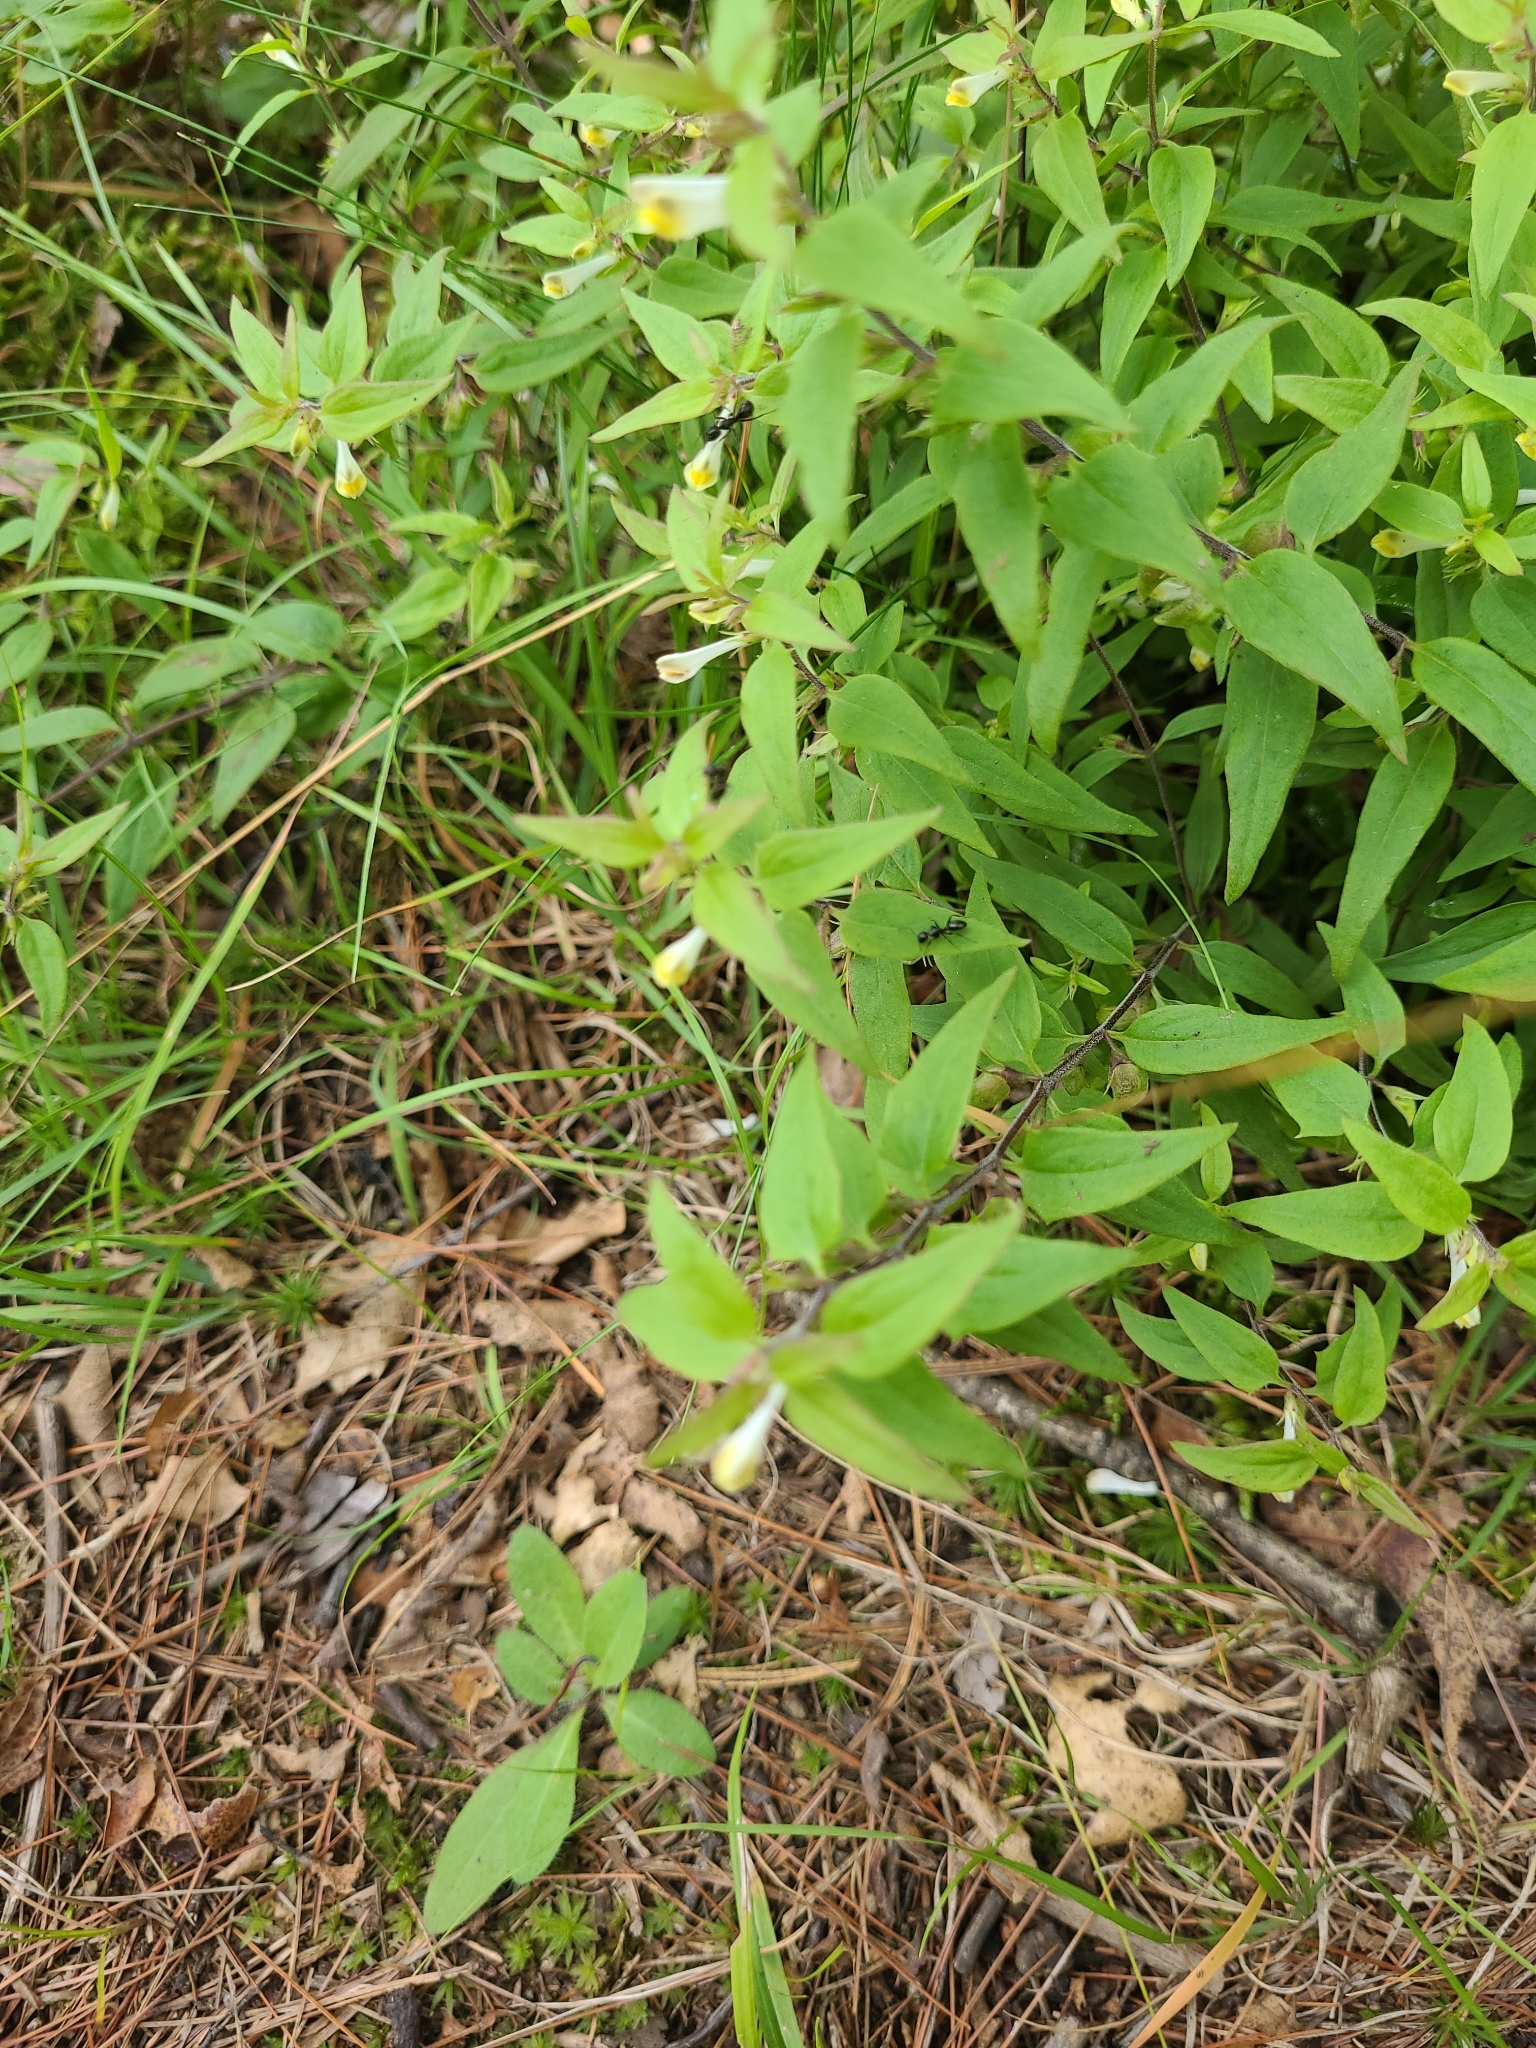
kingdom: Plantae
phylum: Tracheophyta
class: Magnoliopsida
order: Lamiales
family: Orobanchaceae
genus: Melampyrum
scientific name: Melampyrum lineare
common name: American cow-wheat
